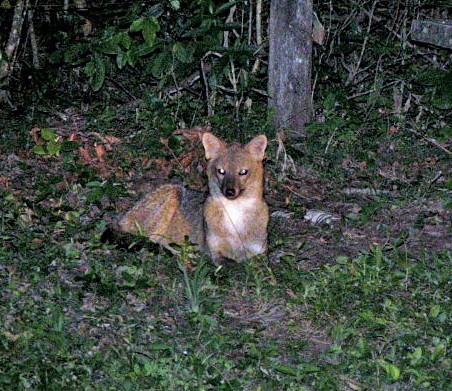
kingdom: Animalia
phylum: Chordata
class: Mammalia
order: Carnivora
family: Canidae
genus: Cerdocyon
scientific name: Cerdocyon thous
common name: Crab-eating fox
